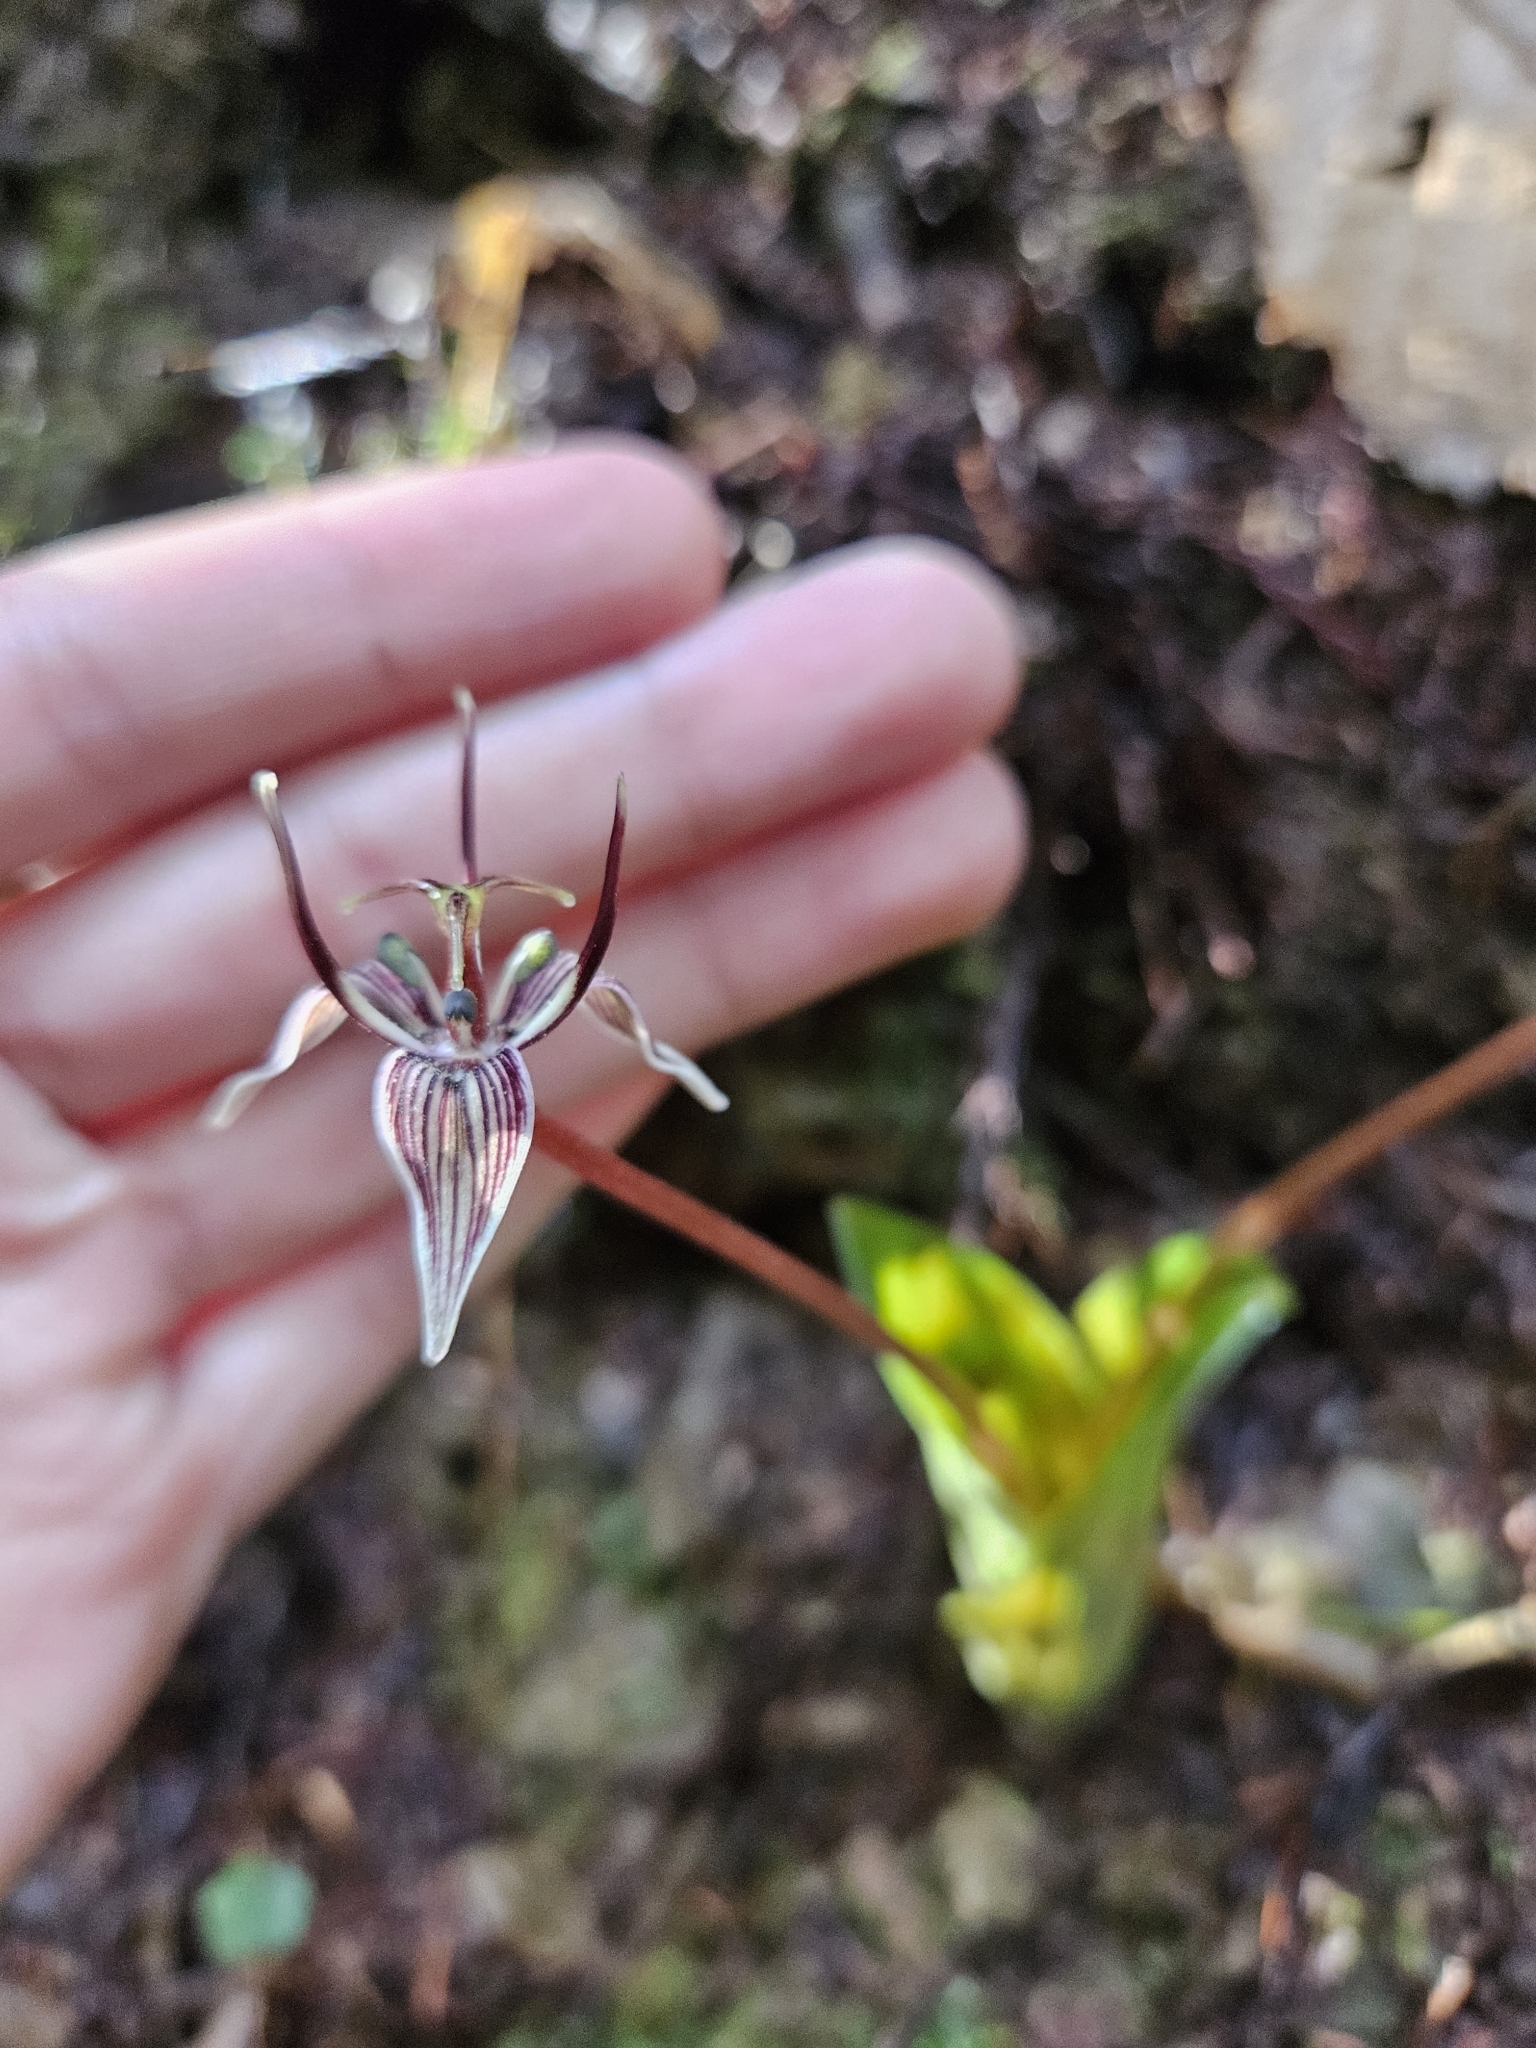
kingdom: Plantae
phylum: Tracheophyta
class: Liliopsida
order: Liliales
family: Liliaceae
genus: Scoliopus
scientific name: Scoliopus bigelovii
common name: Foetid adder's-tongue
